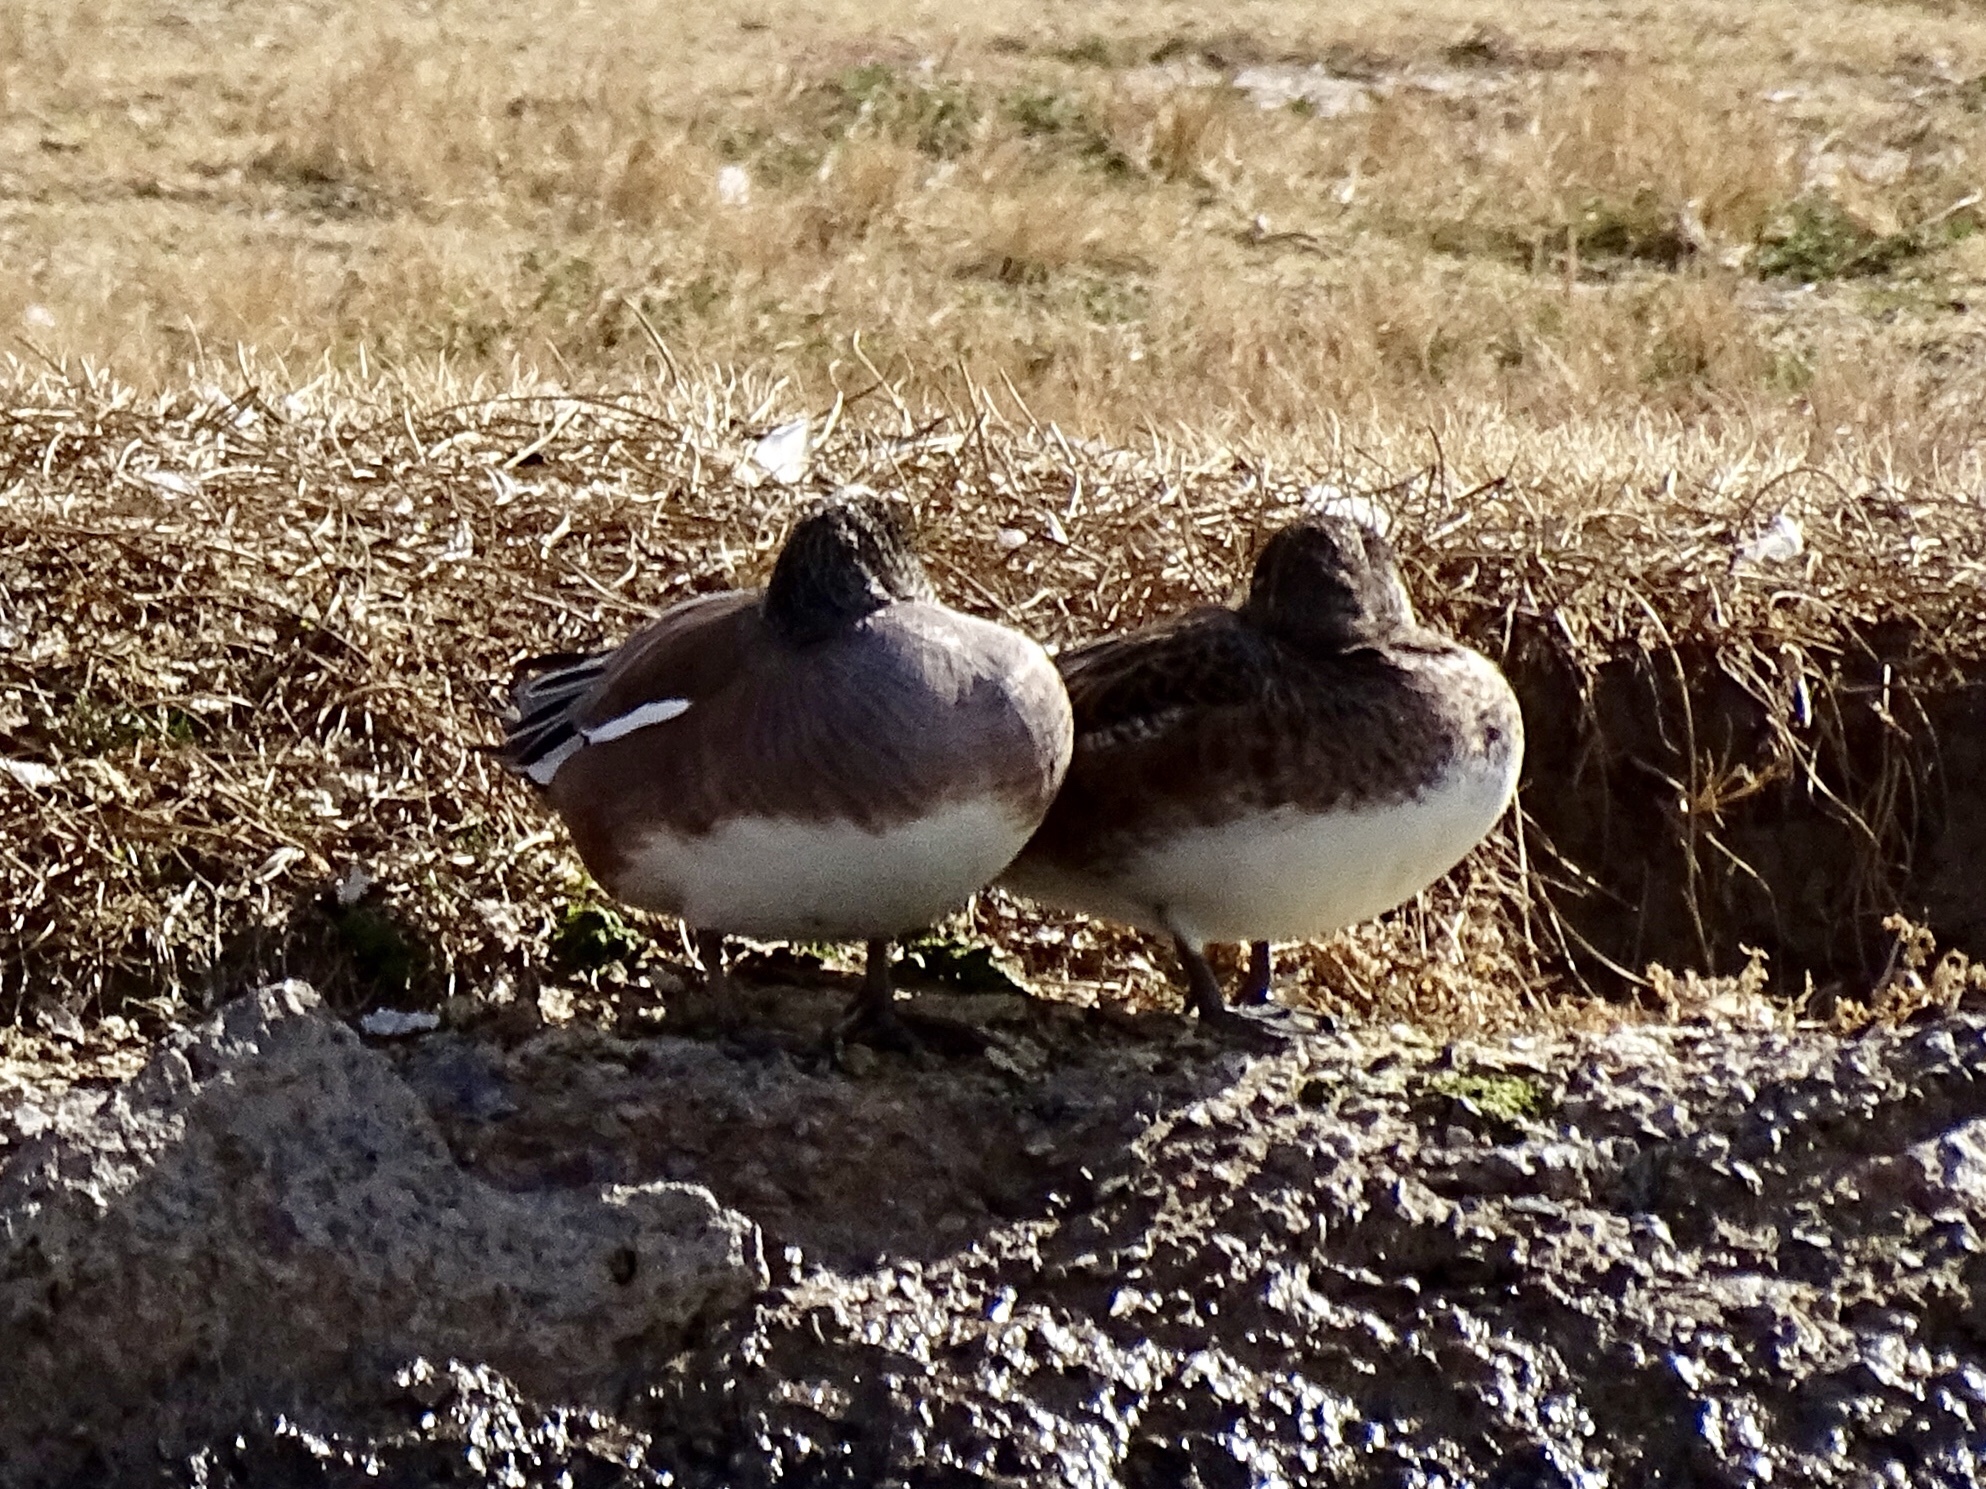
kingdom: Animalia
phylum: Chordata
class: Aves
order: Anseriformes
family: Anatidae
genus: Mareca
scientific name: Mareca americana
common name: American wigeon
